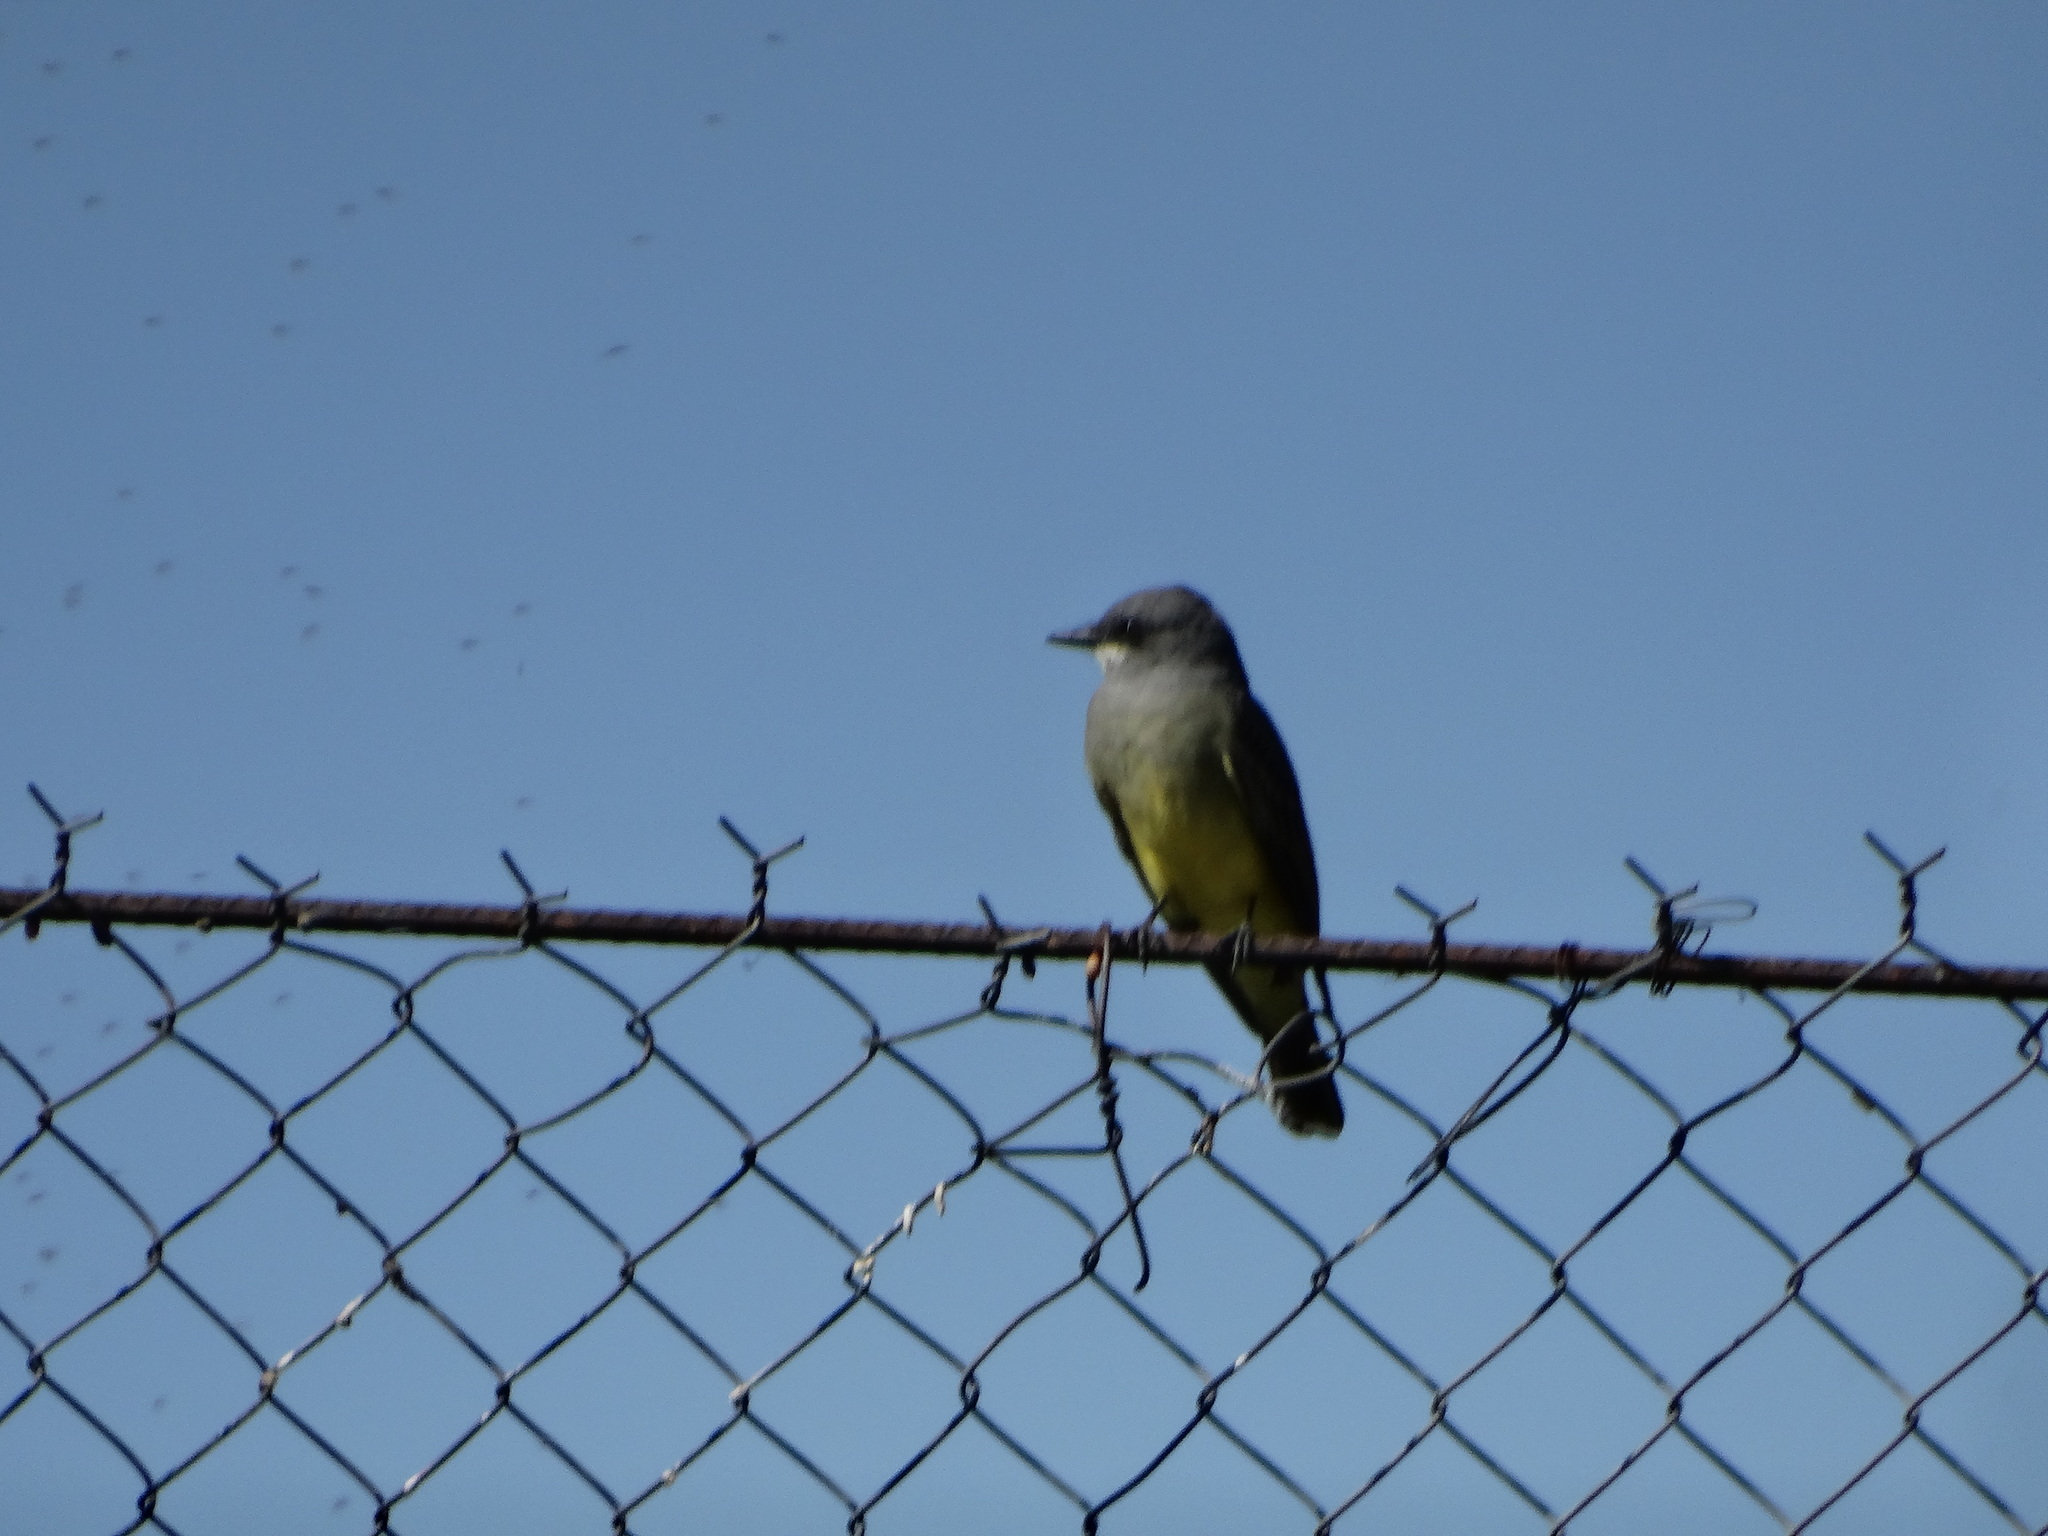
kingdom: Animalia
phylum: Chordata
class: Aves
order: Passeriformes
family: Tyrannidae
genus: Tyrannus
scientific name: Tyrannus vociferans
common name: Cassin's kingbird
